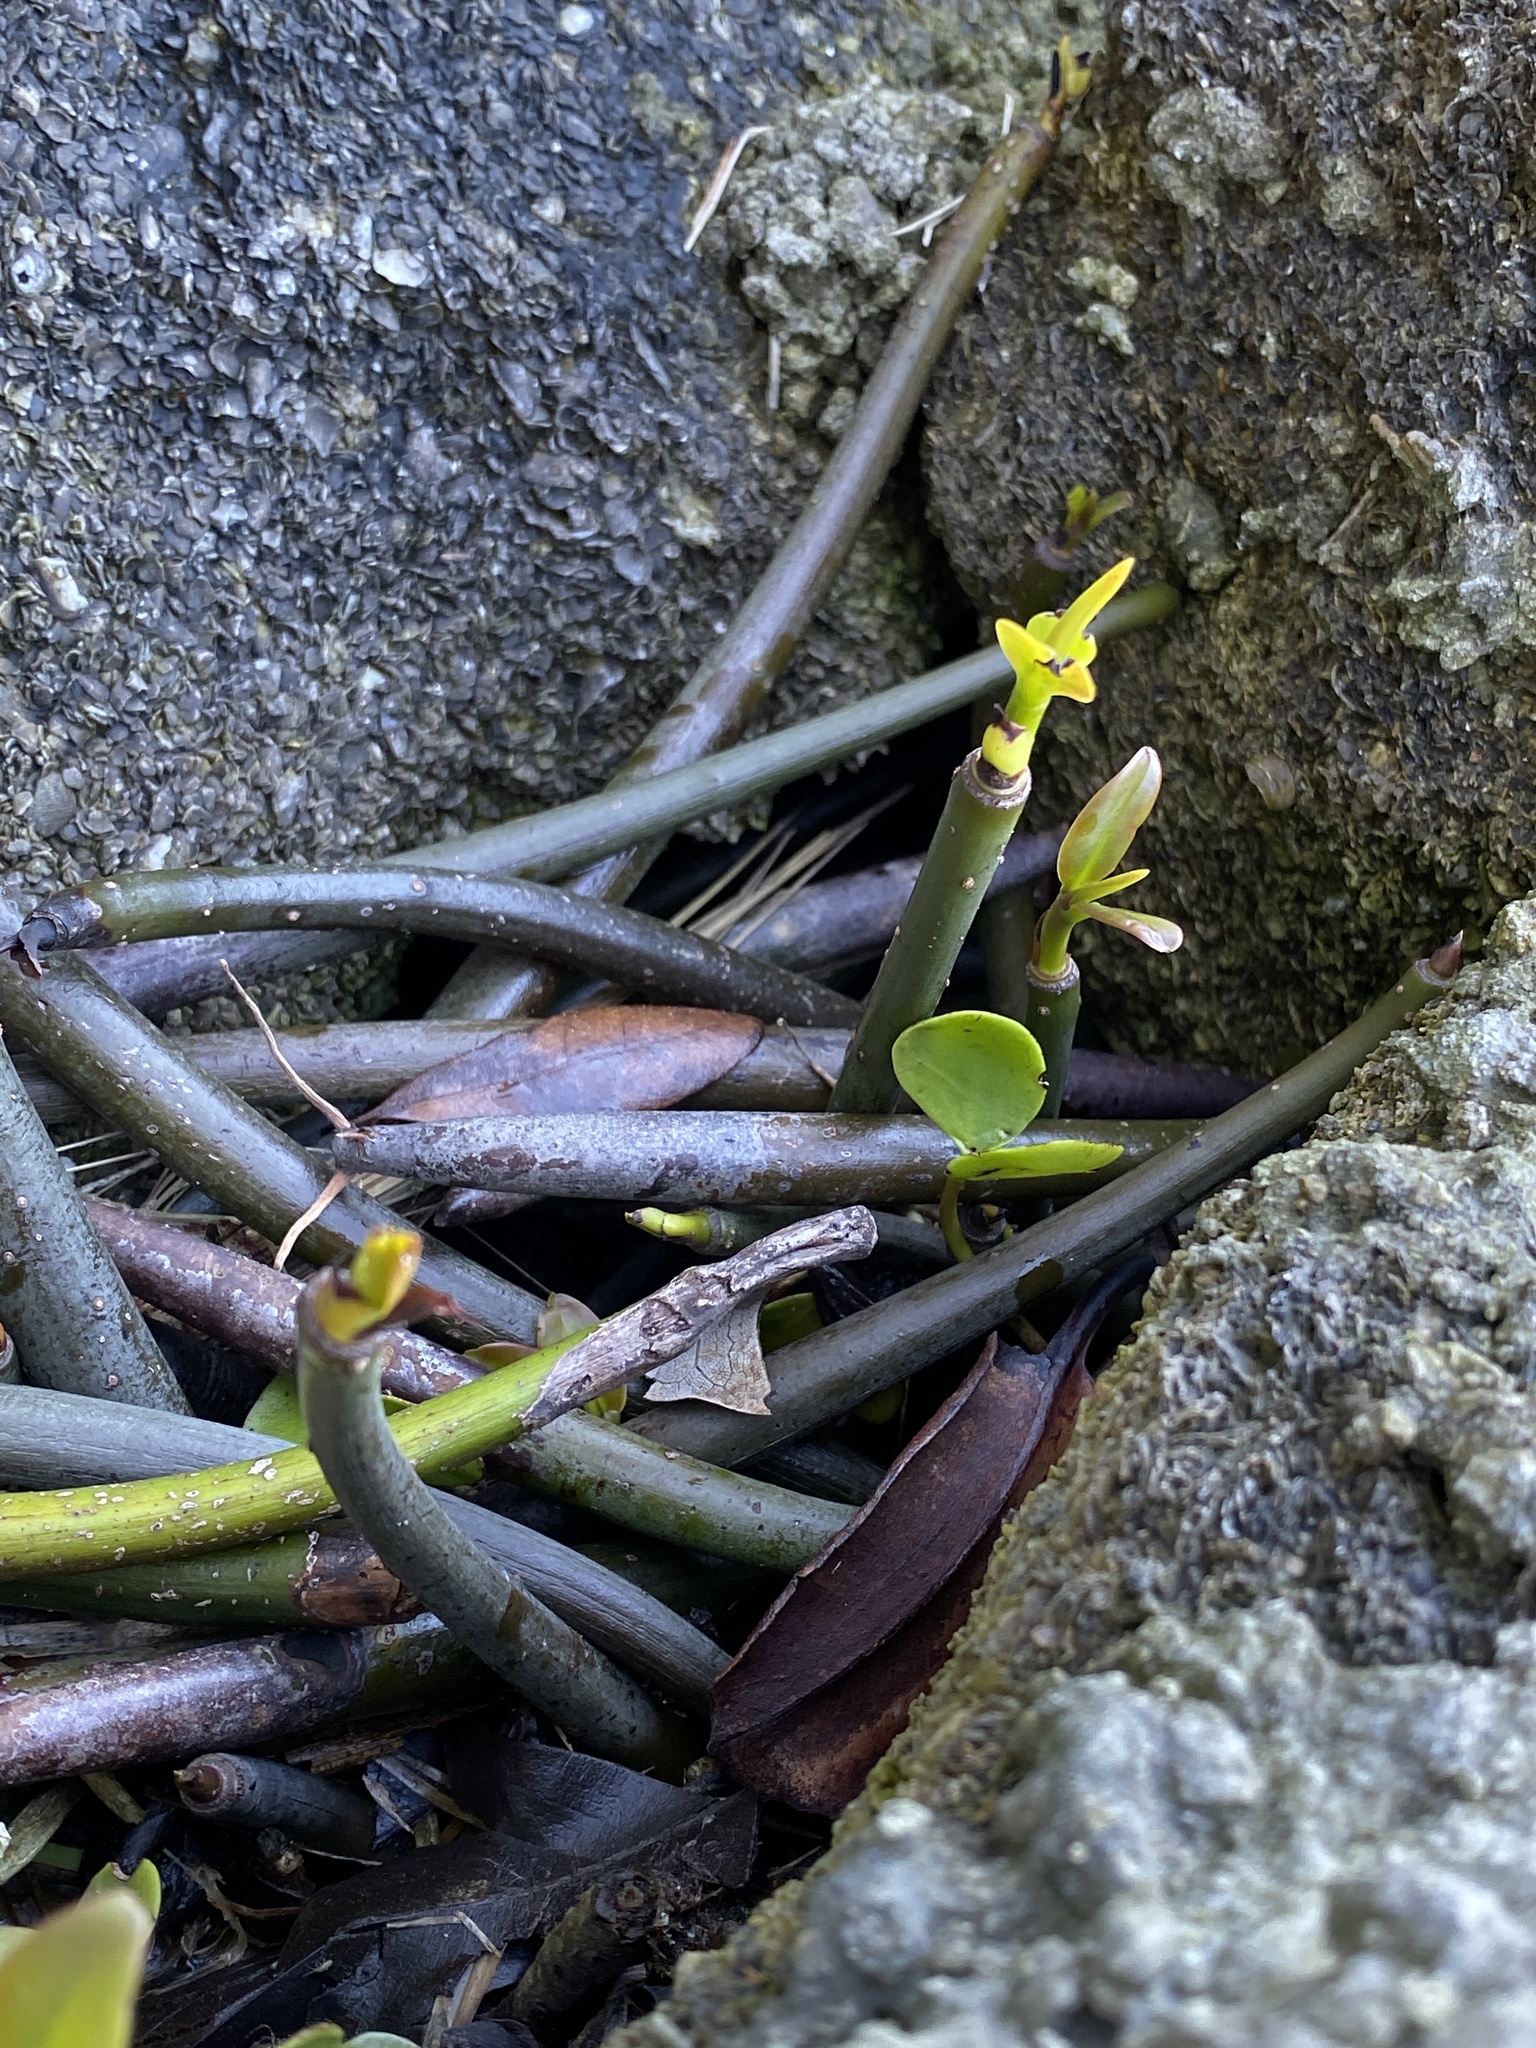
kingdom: Plantae
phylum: Tracheophyta
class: Magnoliopsida
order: Malpighiales
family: Rhizophoraceae
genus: Rhizophora
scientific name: Rhizophora mangle
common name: Red mangrove
